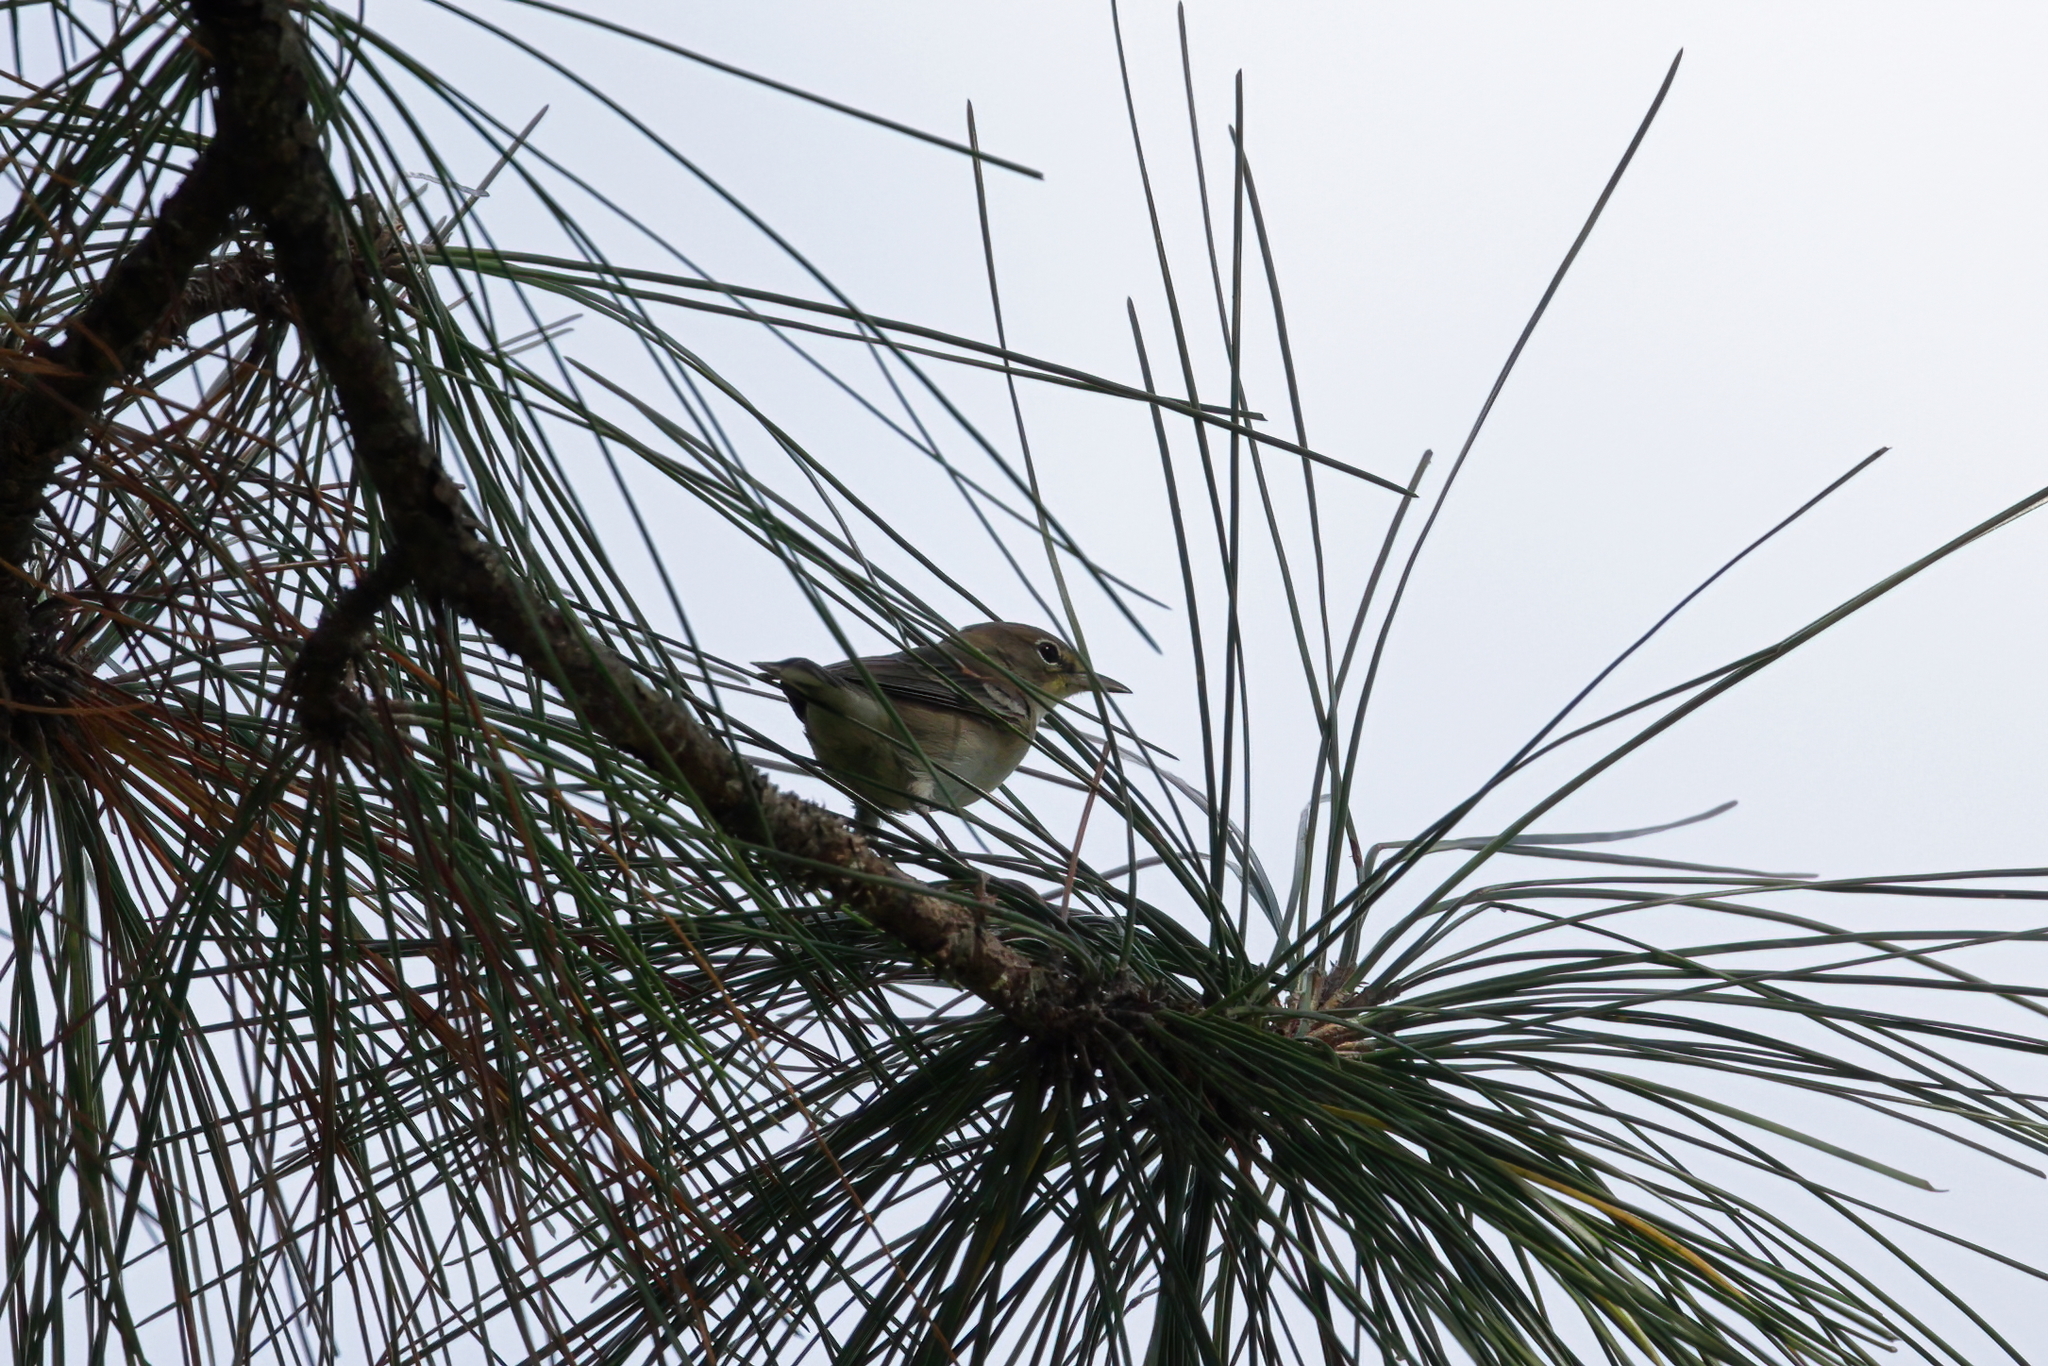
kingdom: Animalia
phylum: Chordata
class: Aves
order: Passeriformes
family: Parulidae
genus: Setophaga
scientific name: Setophaga pinus
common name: Pine warbler
